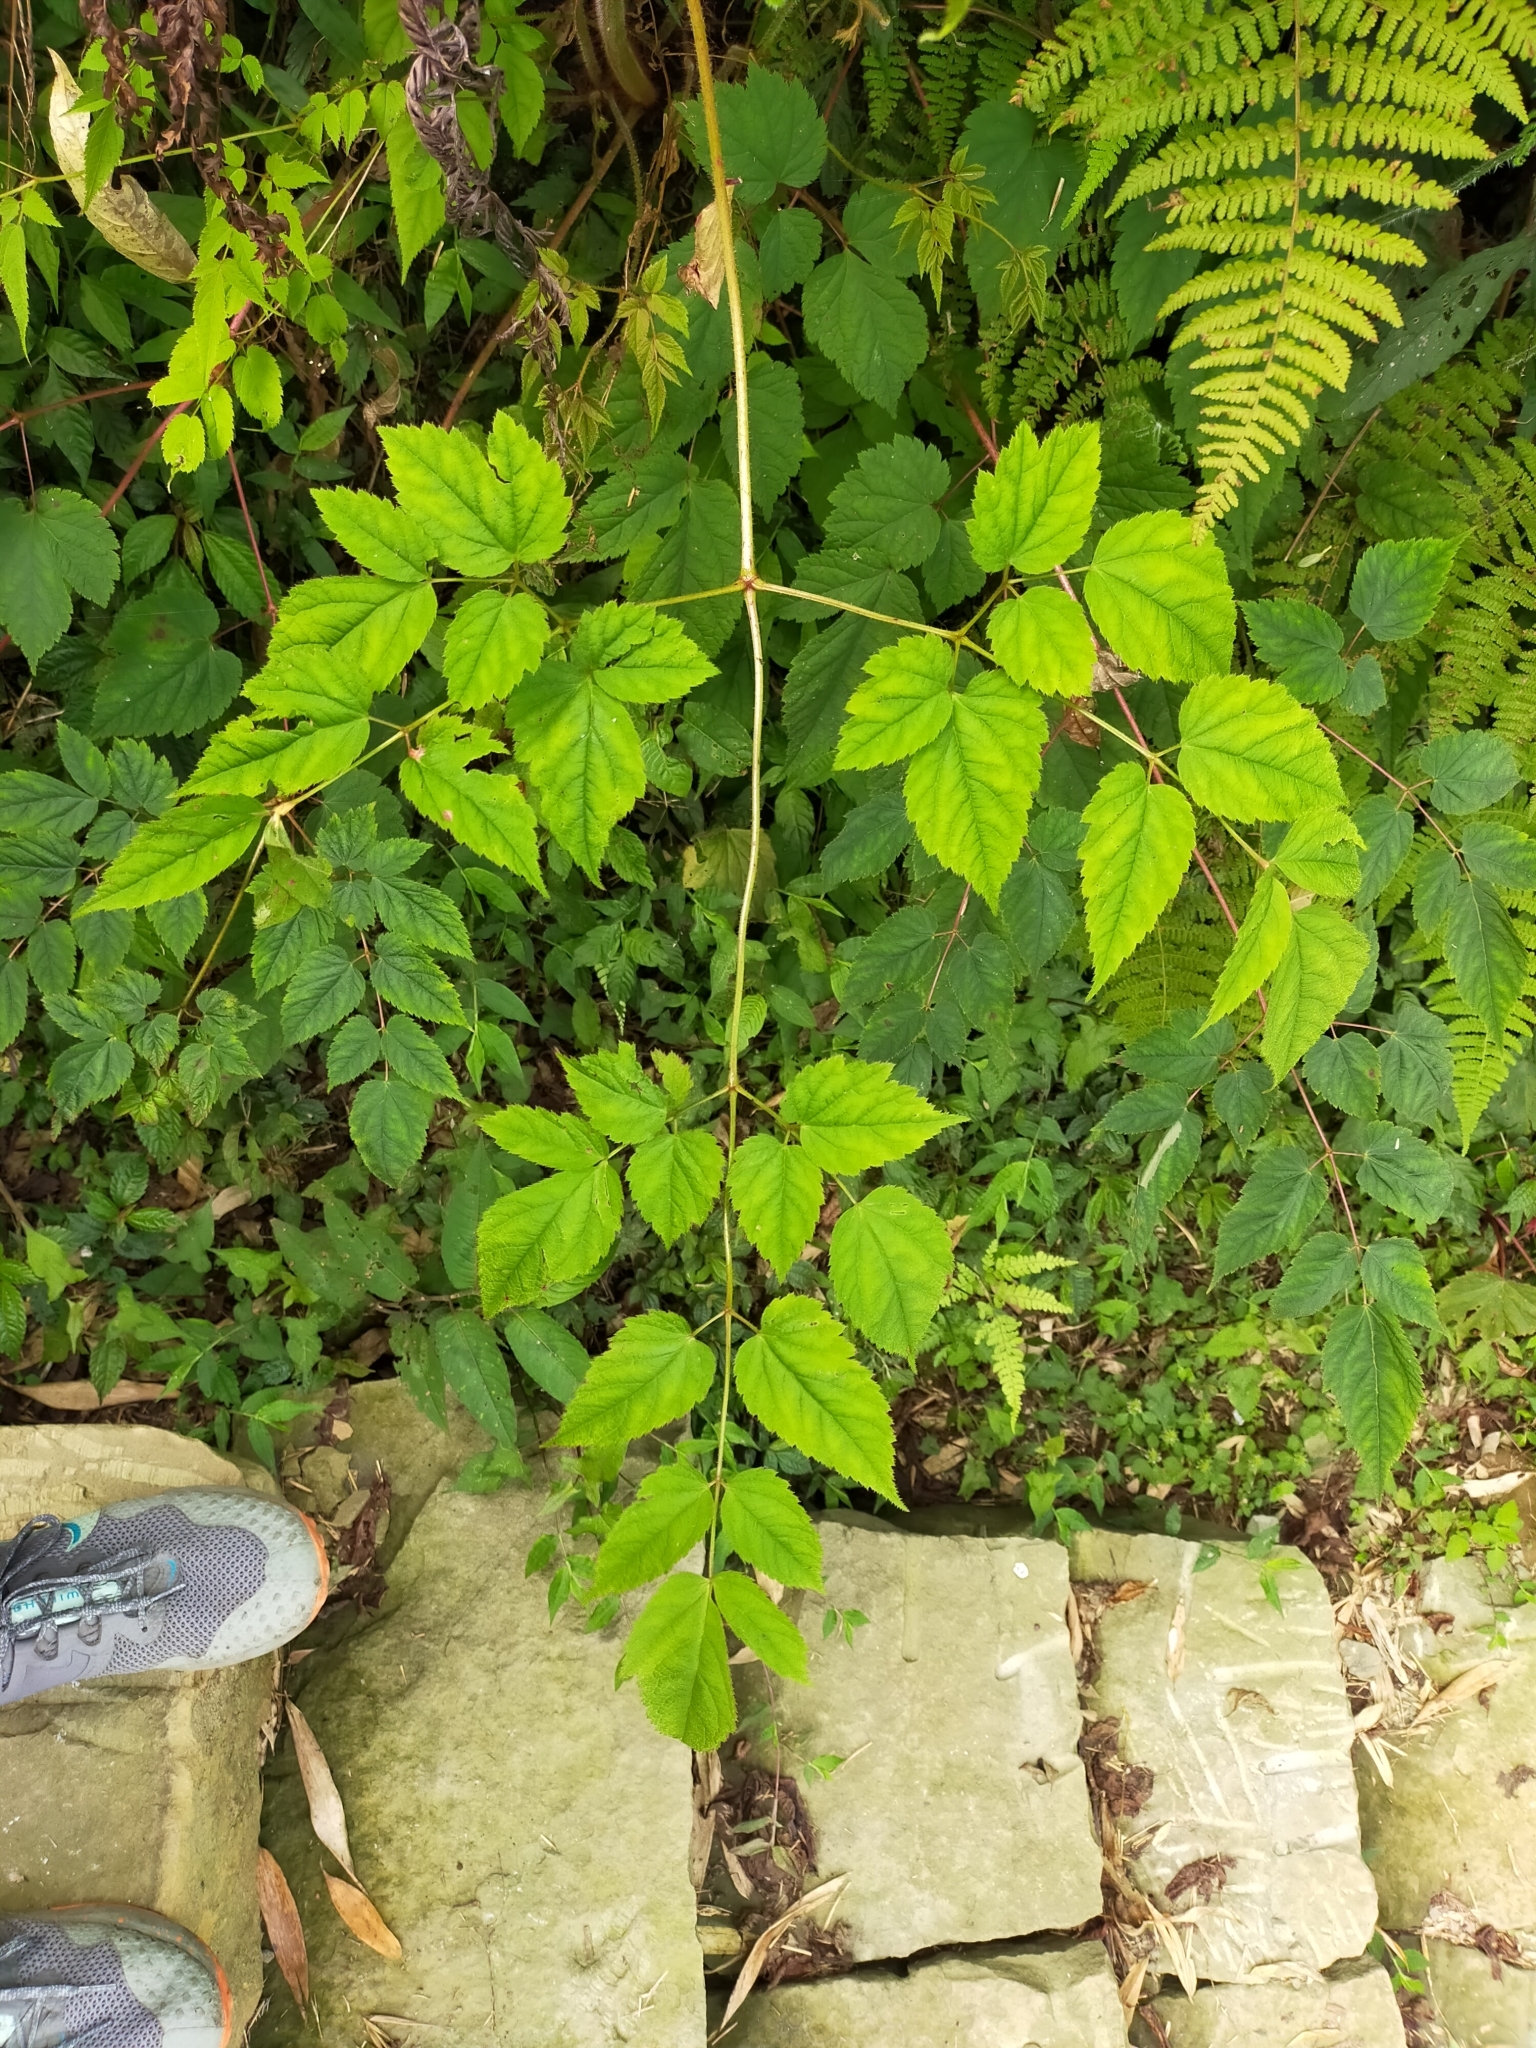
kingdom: Plantae
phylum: Tracheophyta
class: Magnoliopsida
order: Saxifragales
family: Saxifragaceae
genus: Astilbe
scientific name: Astilbe longicarpa
